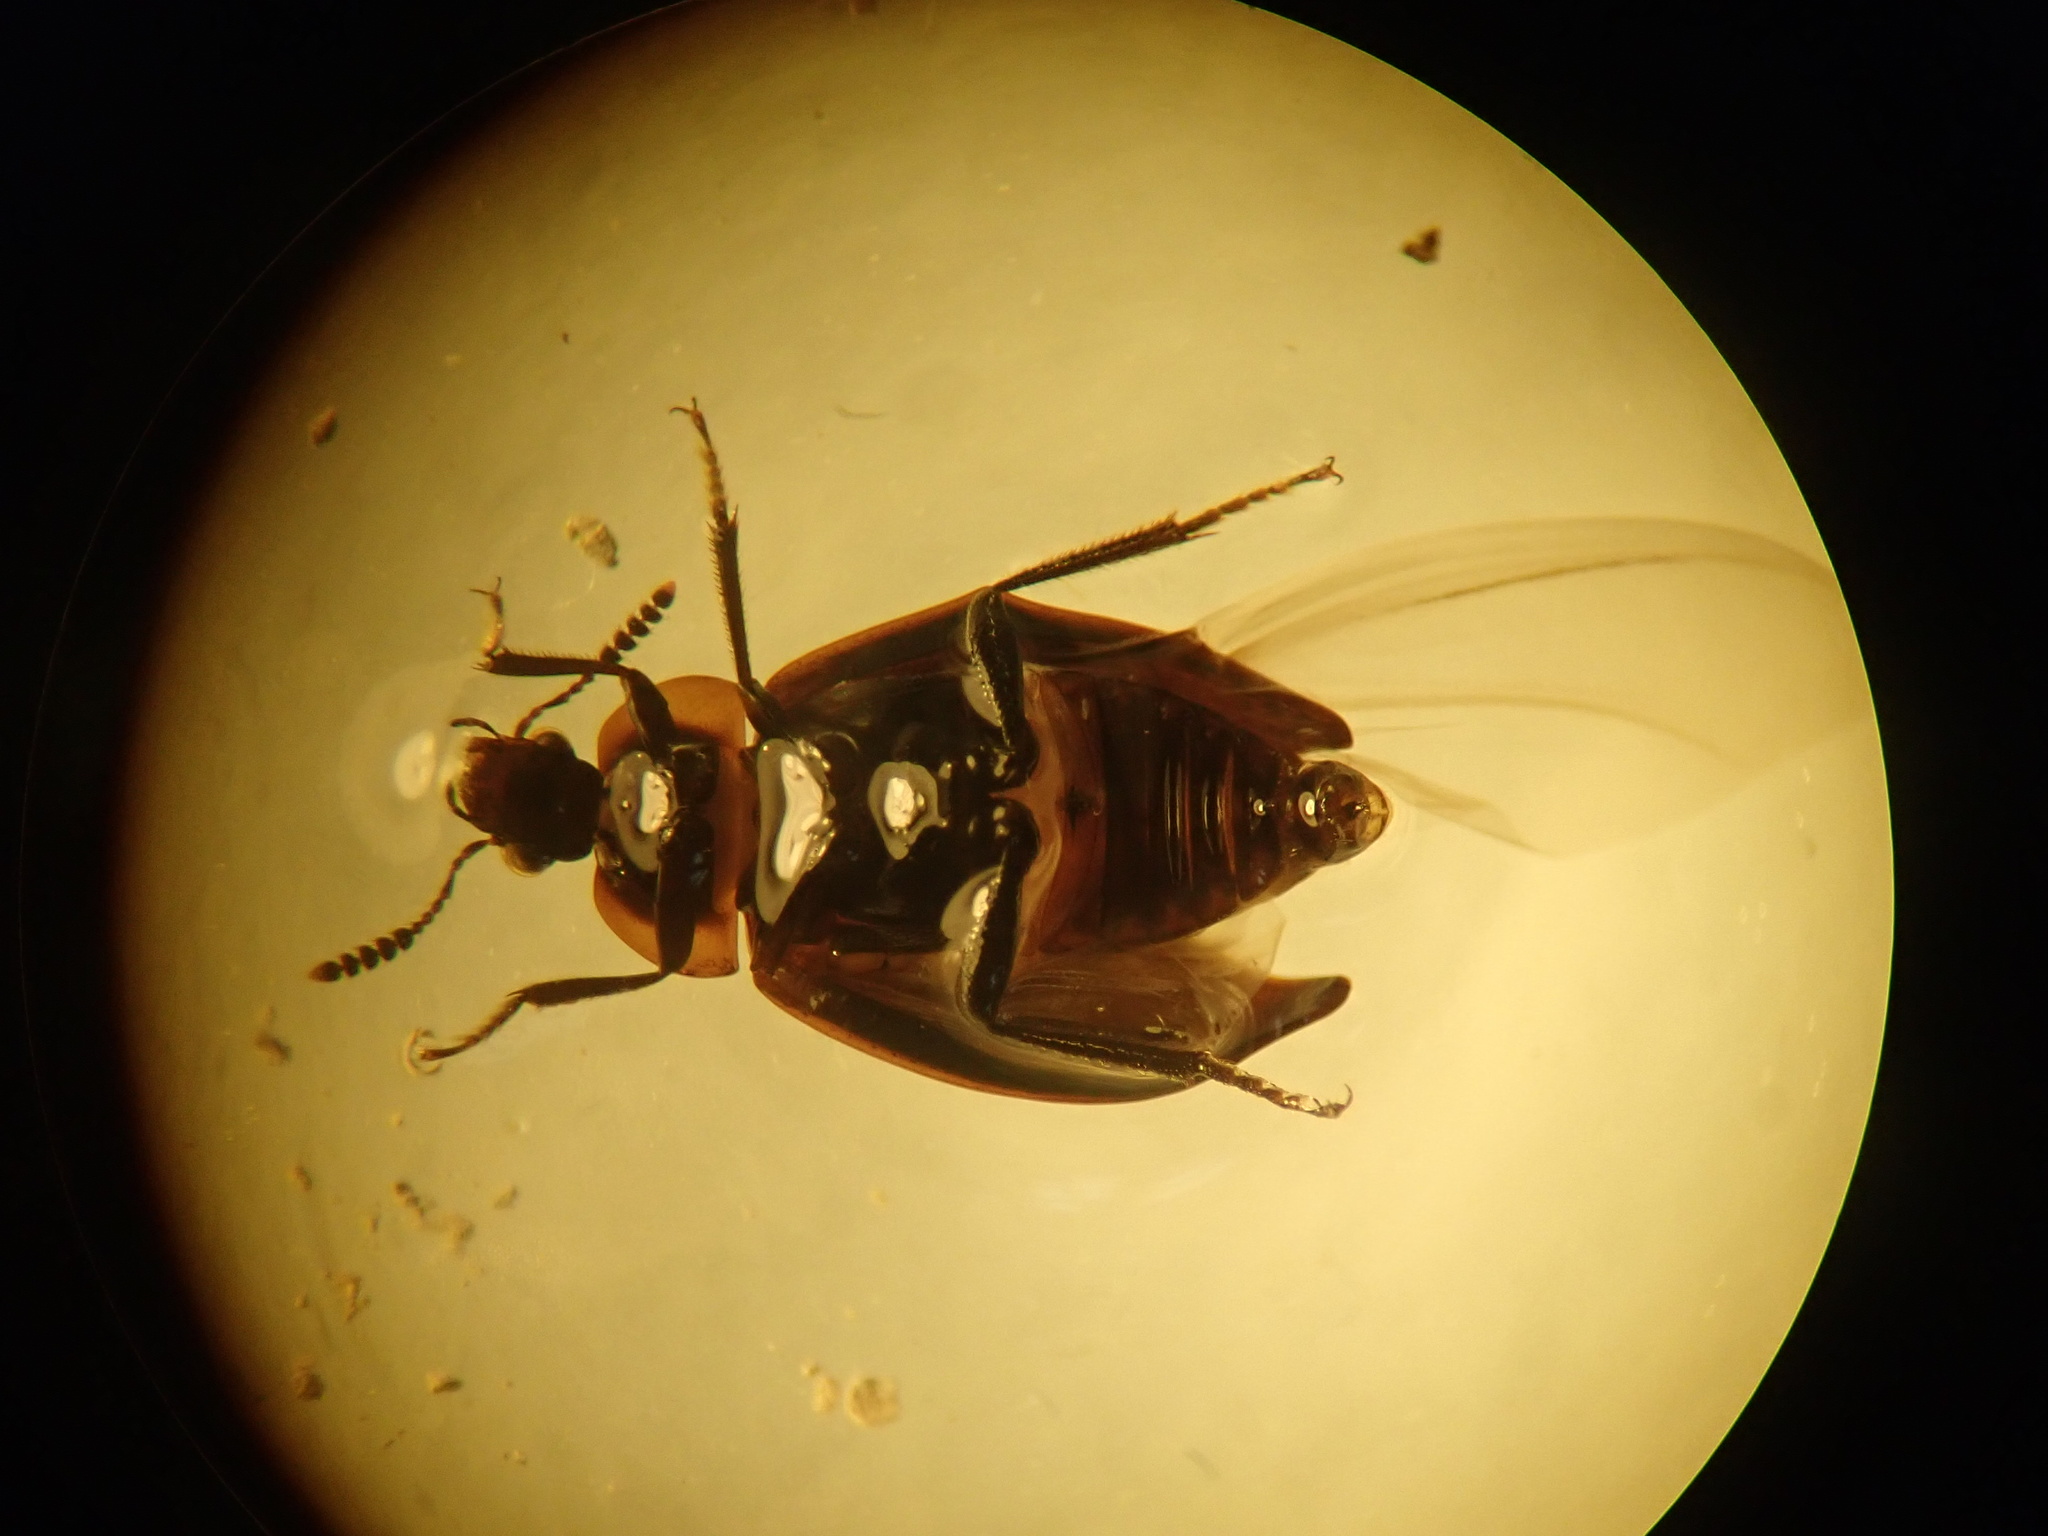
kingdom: Animalia
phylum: Arthropoda
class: Insecta
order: Coleoptera
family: Agyrtidae
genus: Zeanecrophilus
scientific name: Zeanecrophilus thayerae
